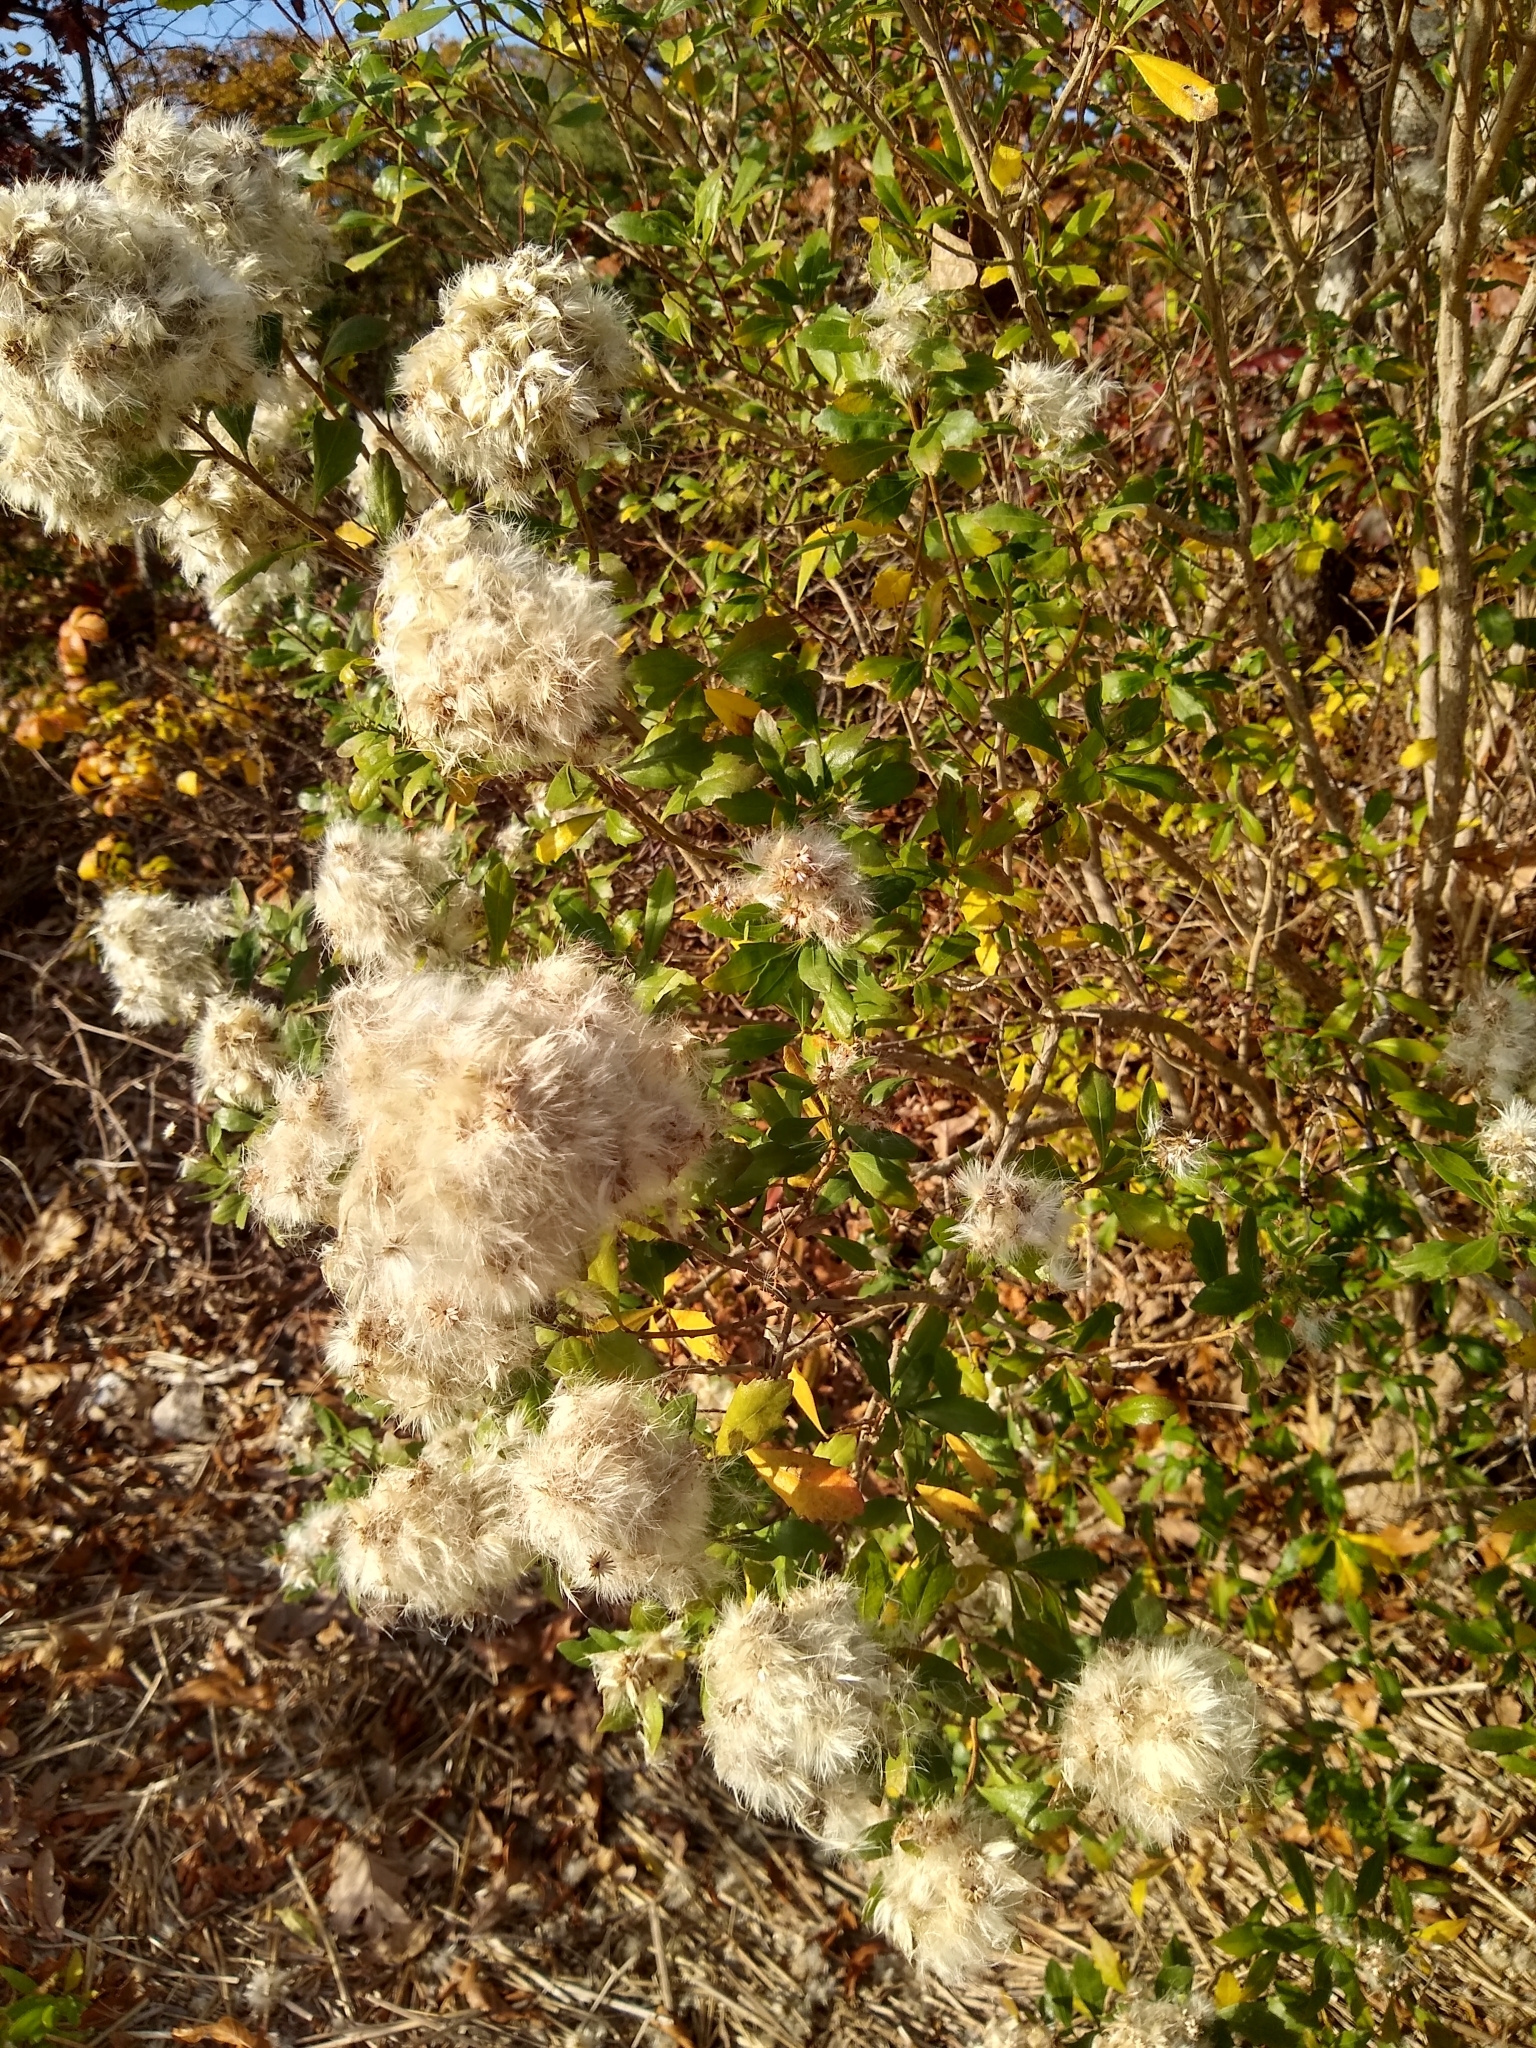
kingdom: Plantae
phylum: Tracheophyta
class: Magnoliopsida
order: Asterales
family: Asteraceae
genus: Baccharis
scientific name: Baccharis halimifolia
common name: Eastern baccharis
